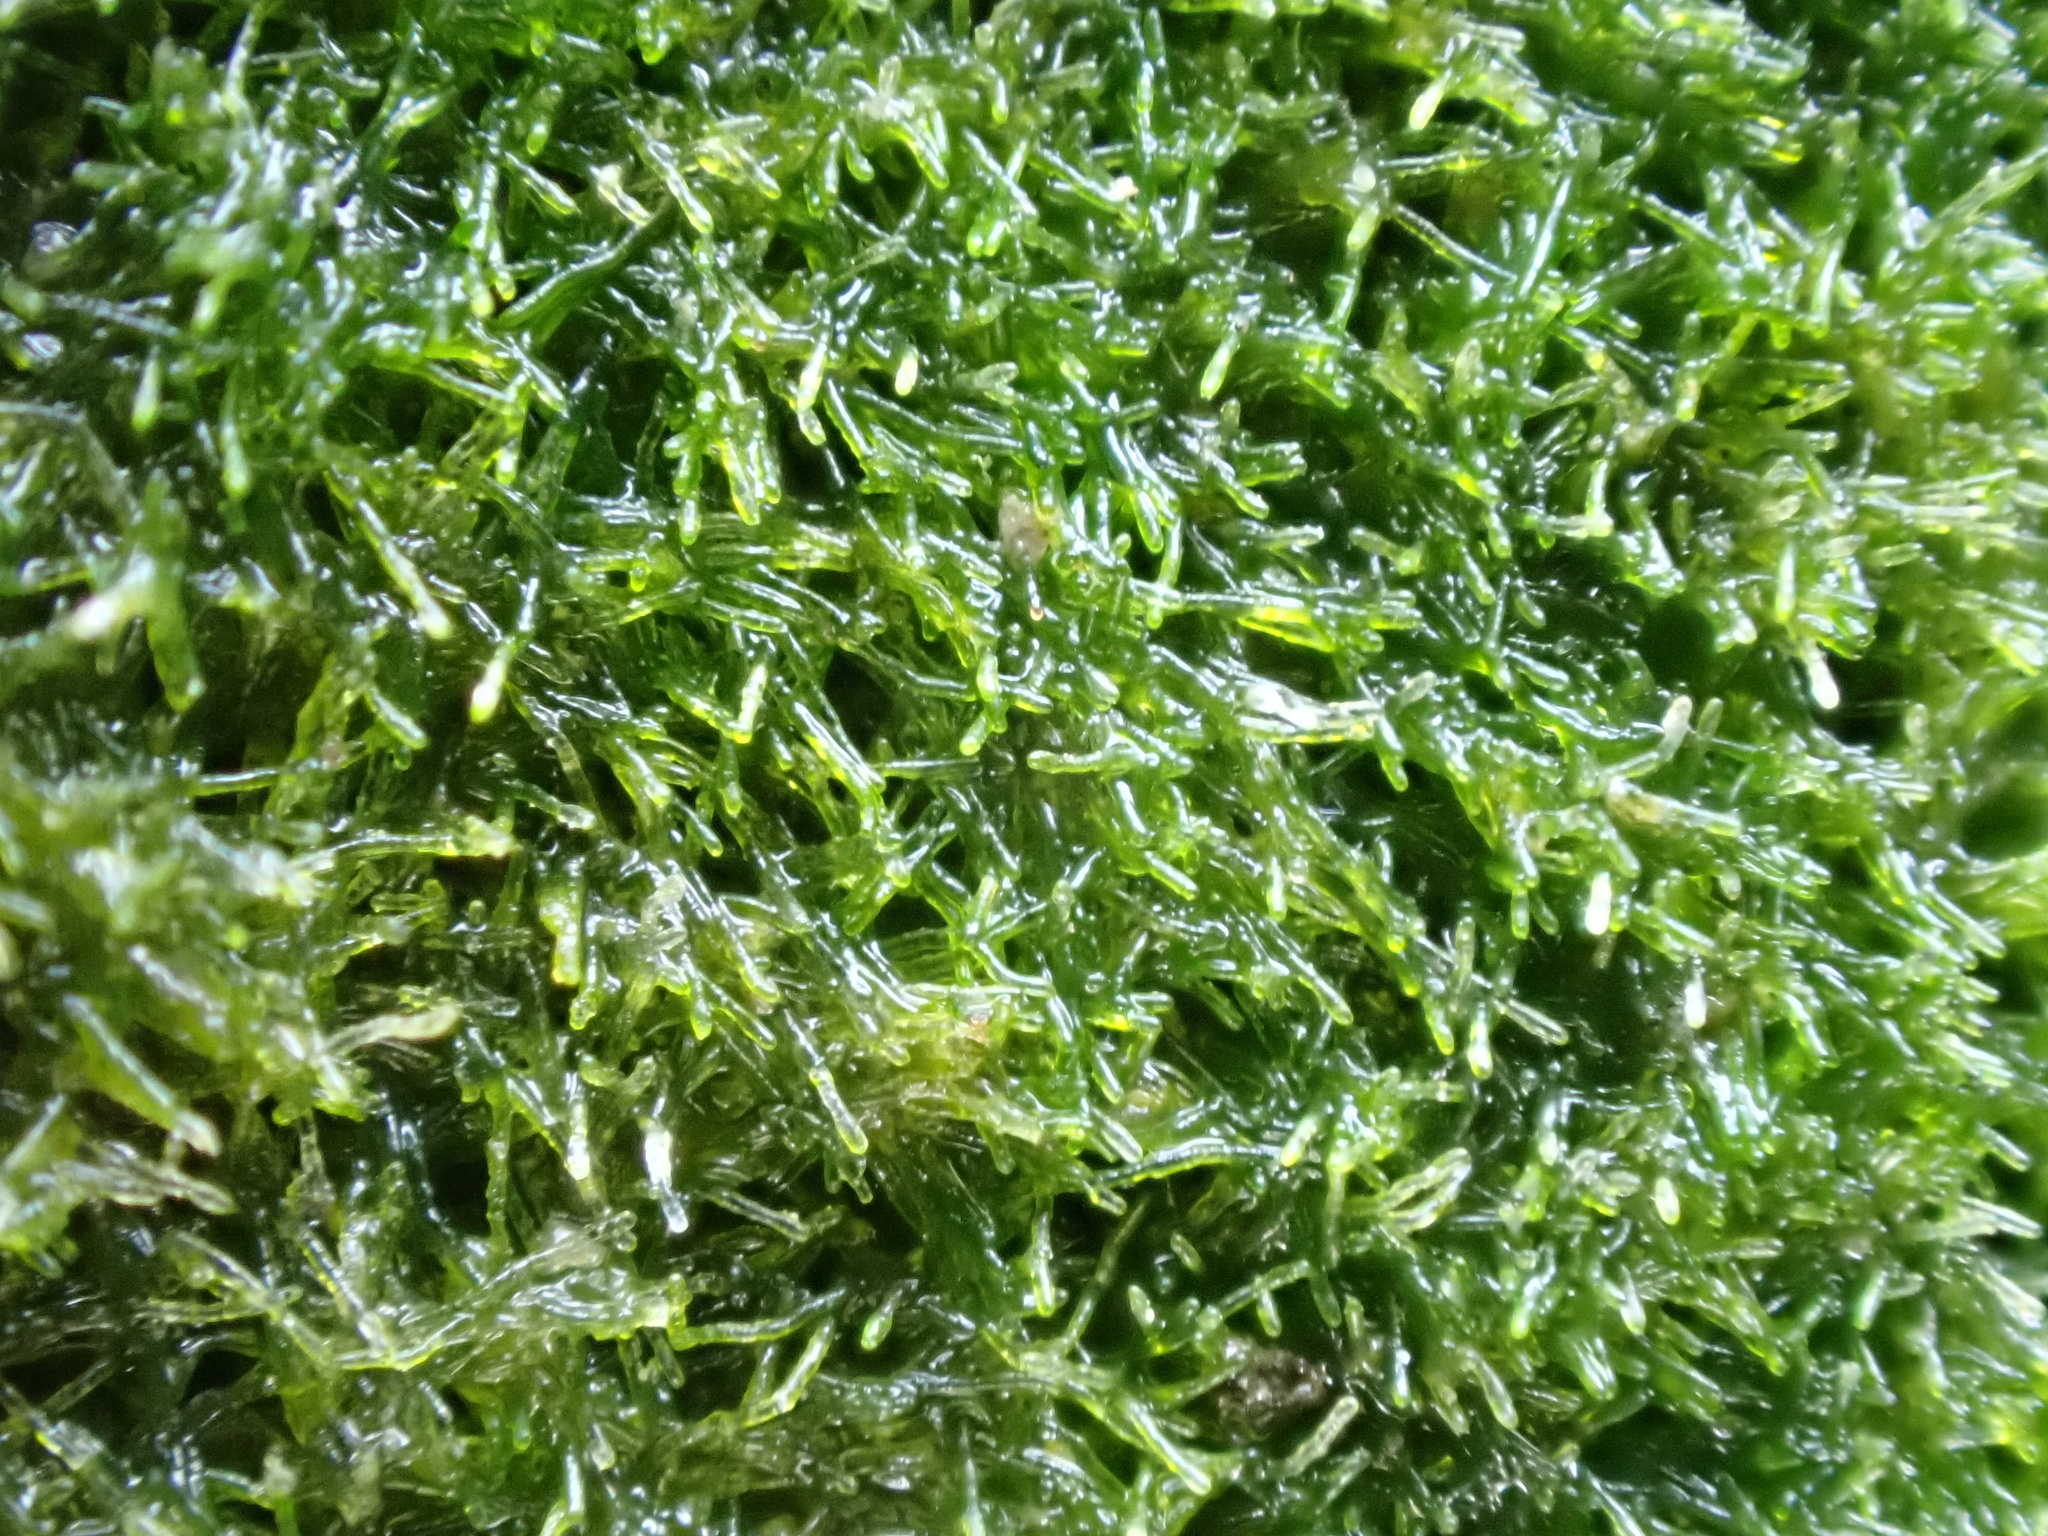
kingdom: Chromista
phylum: Ochrophyta
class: Xanthophyceae
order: Vaucheriales
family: Vaucheriaceae
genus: Vaucheria
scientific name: Vaucheria
